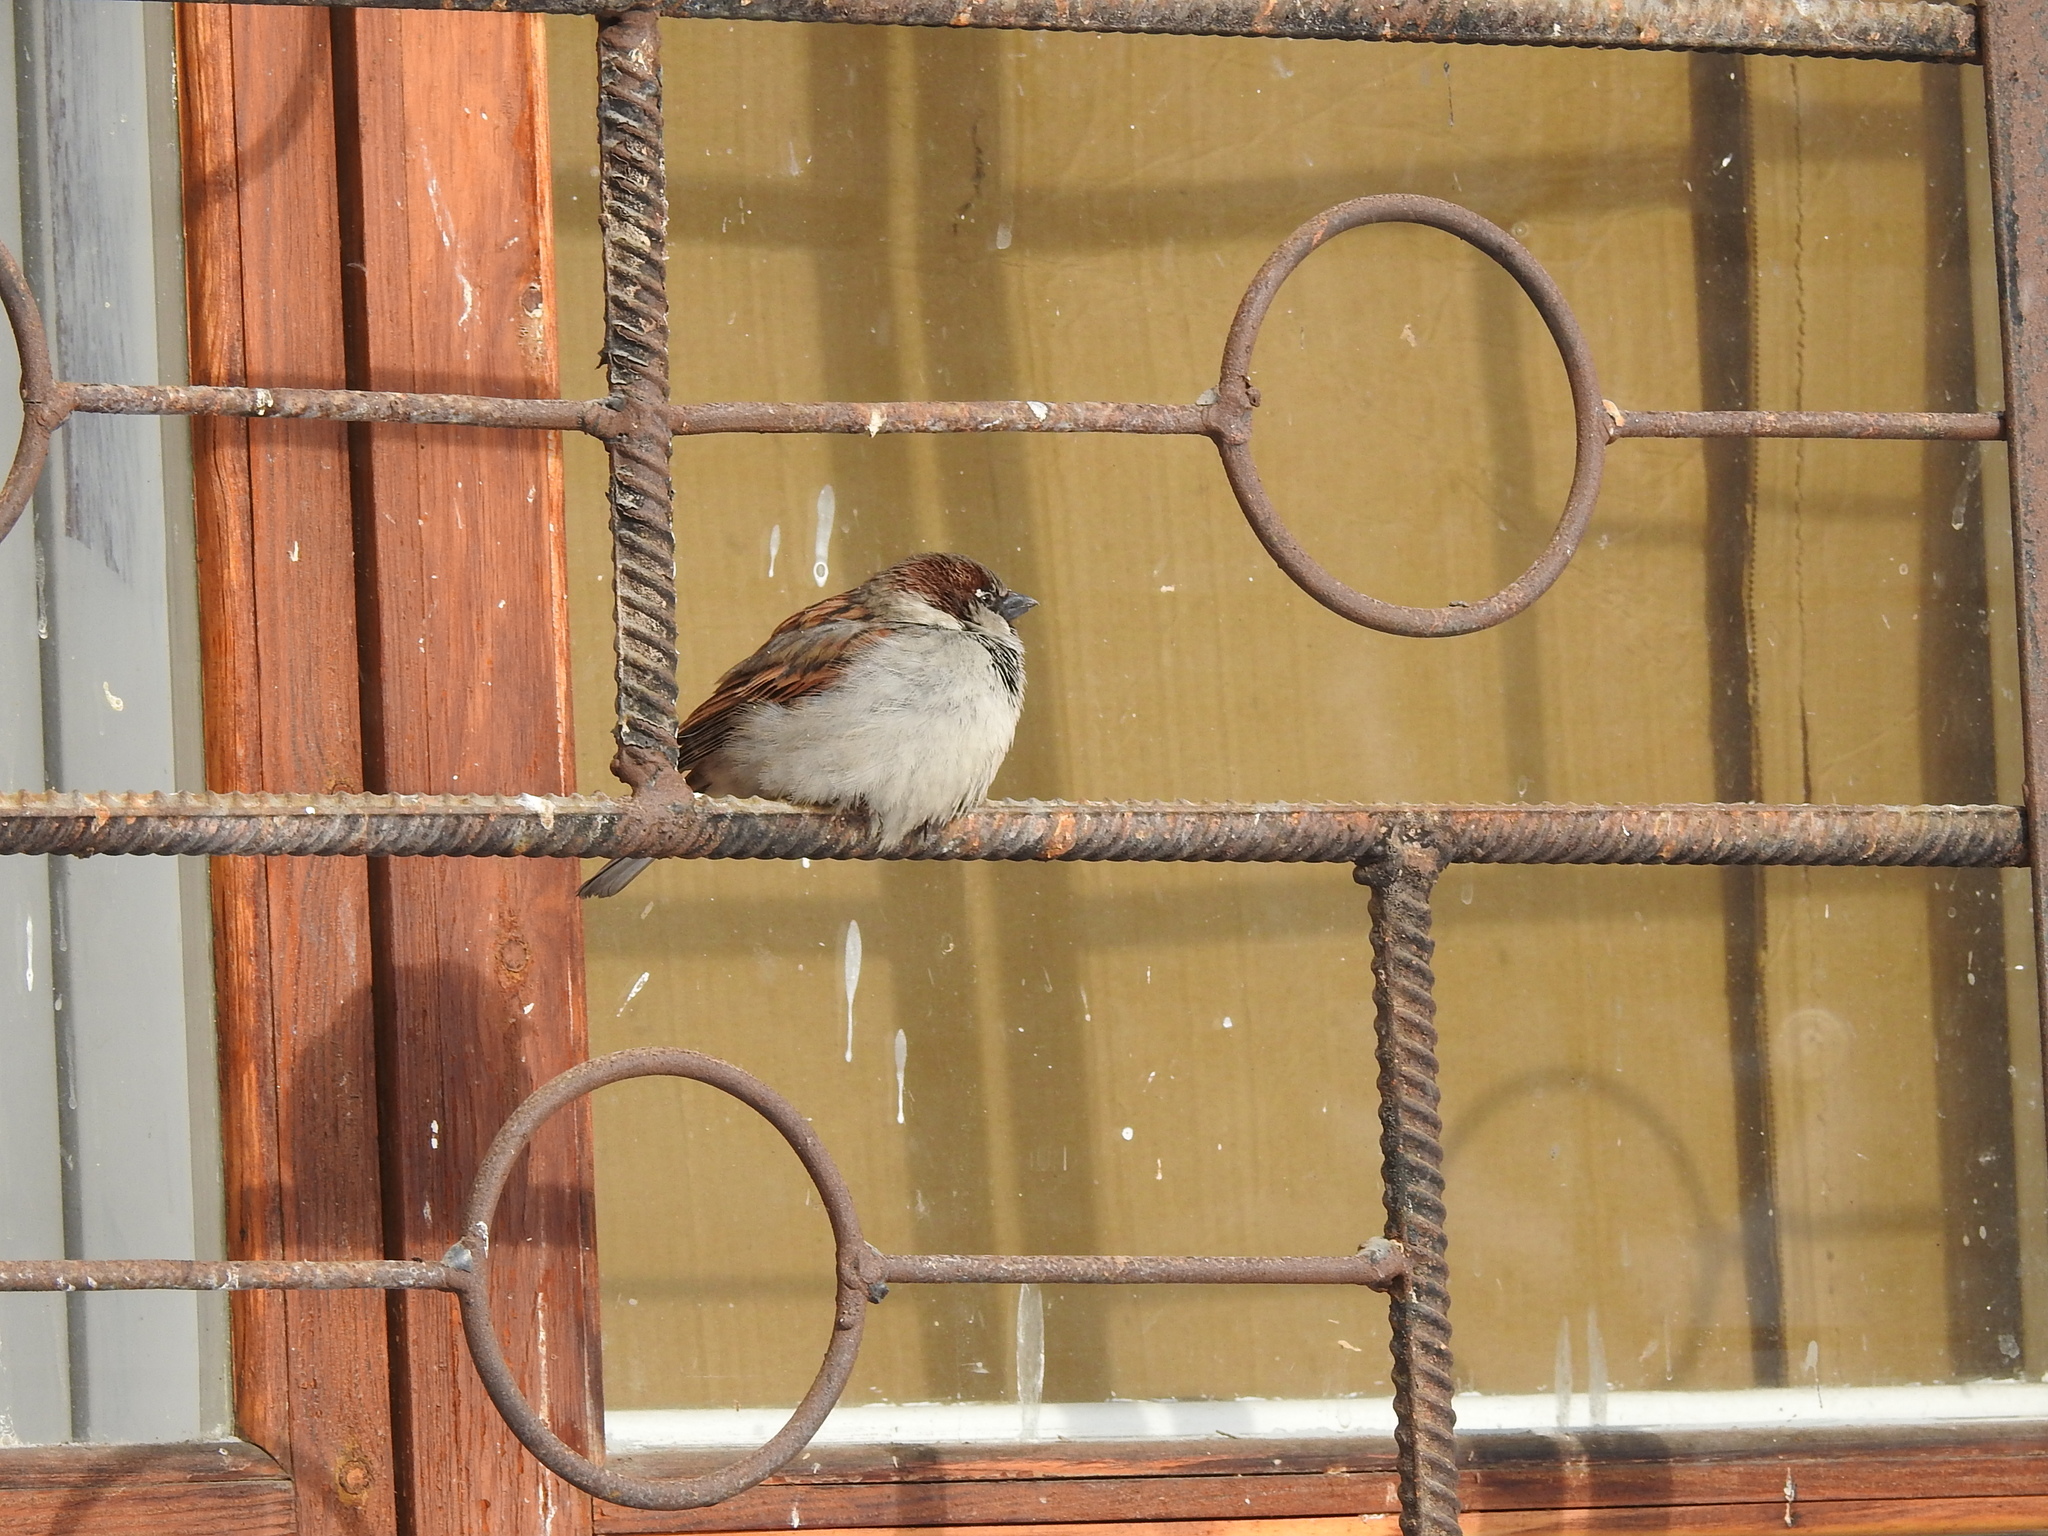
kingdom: Animalia
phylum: Chordata
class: Aves
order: Passeriformes
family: Passeridae
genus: Passer
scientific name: Passer domesticus
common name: House sparrow
